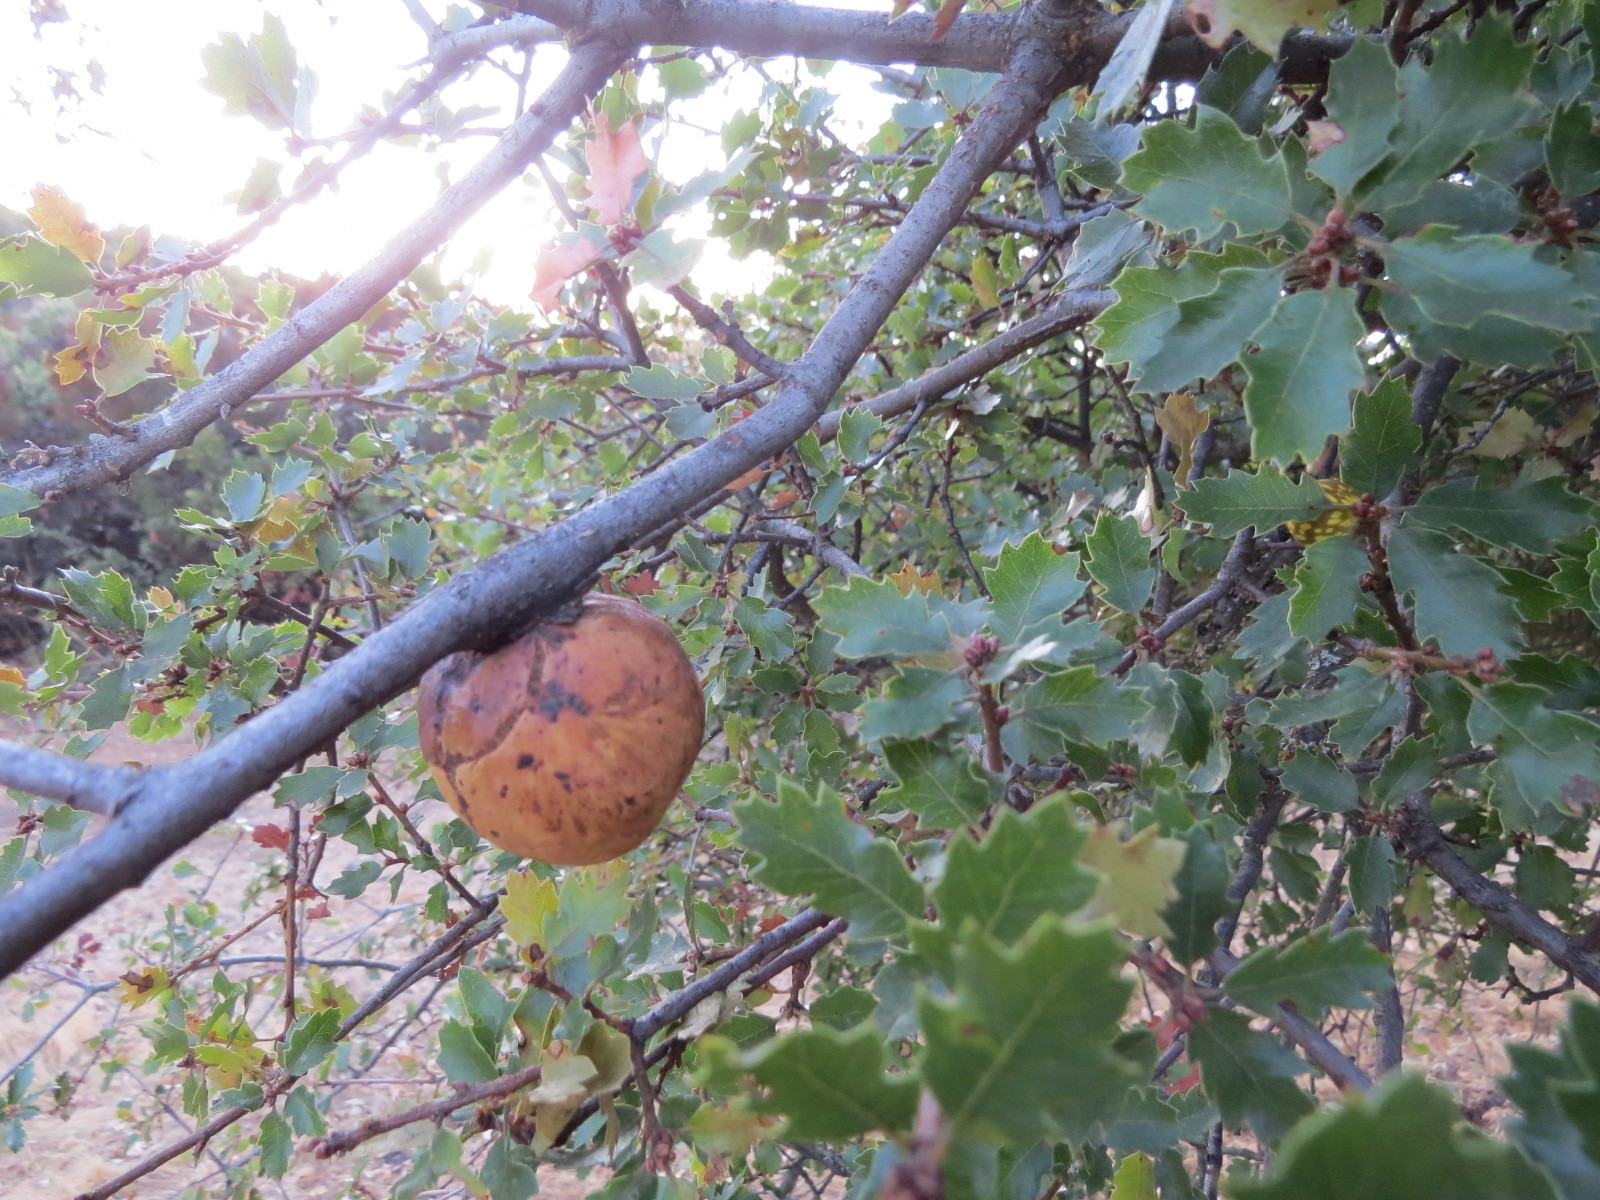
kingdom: Animalia
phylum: Arthropoda
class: Insecta
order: Hymenoptera
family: Cynipidae
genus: Andricus
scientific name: Andricus quercuscalifornicus
